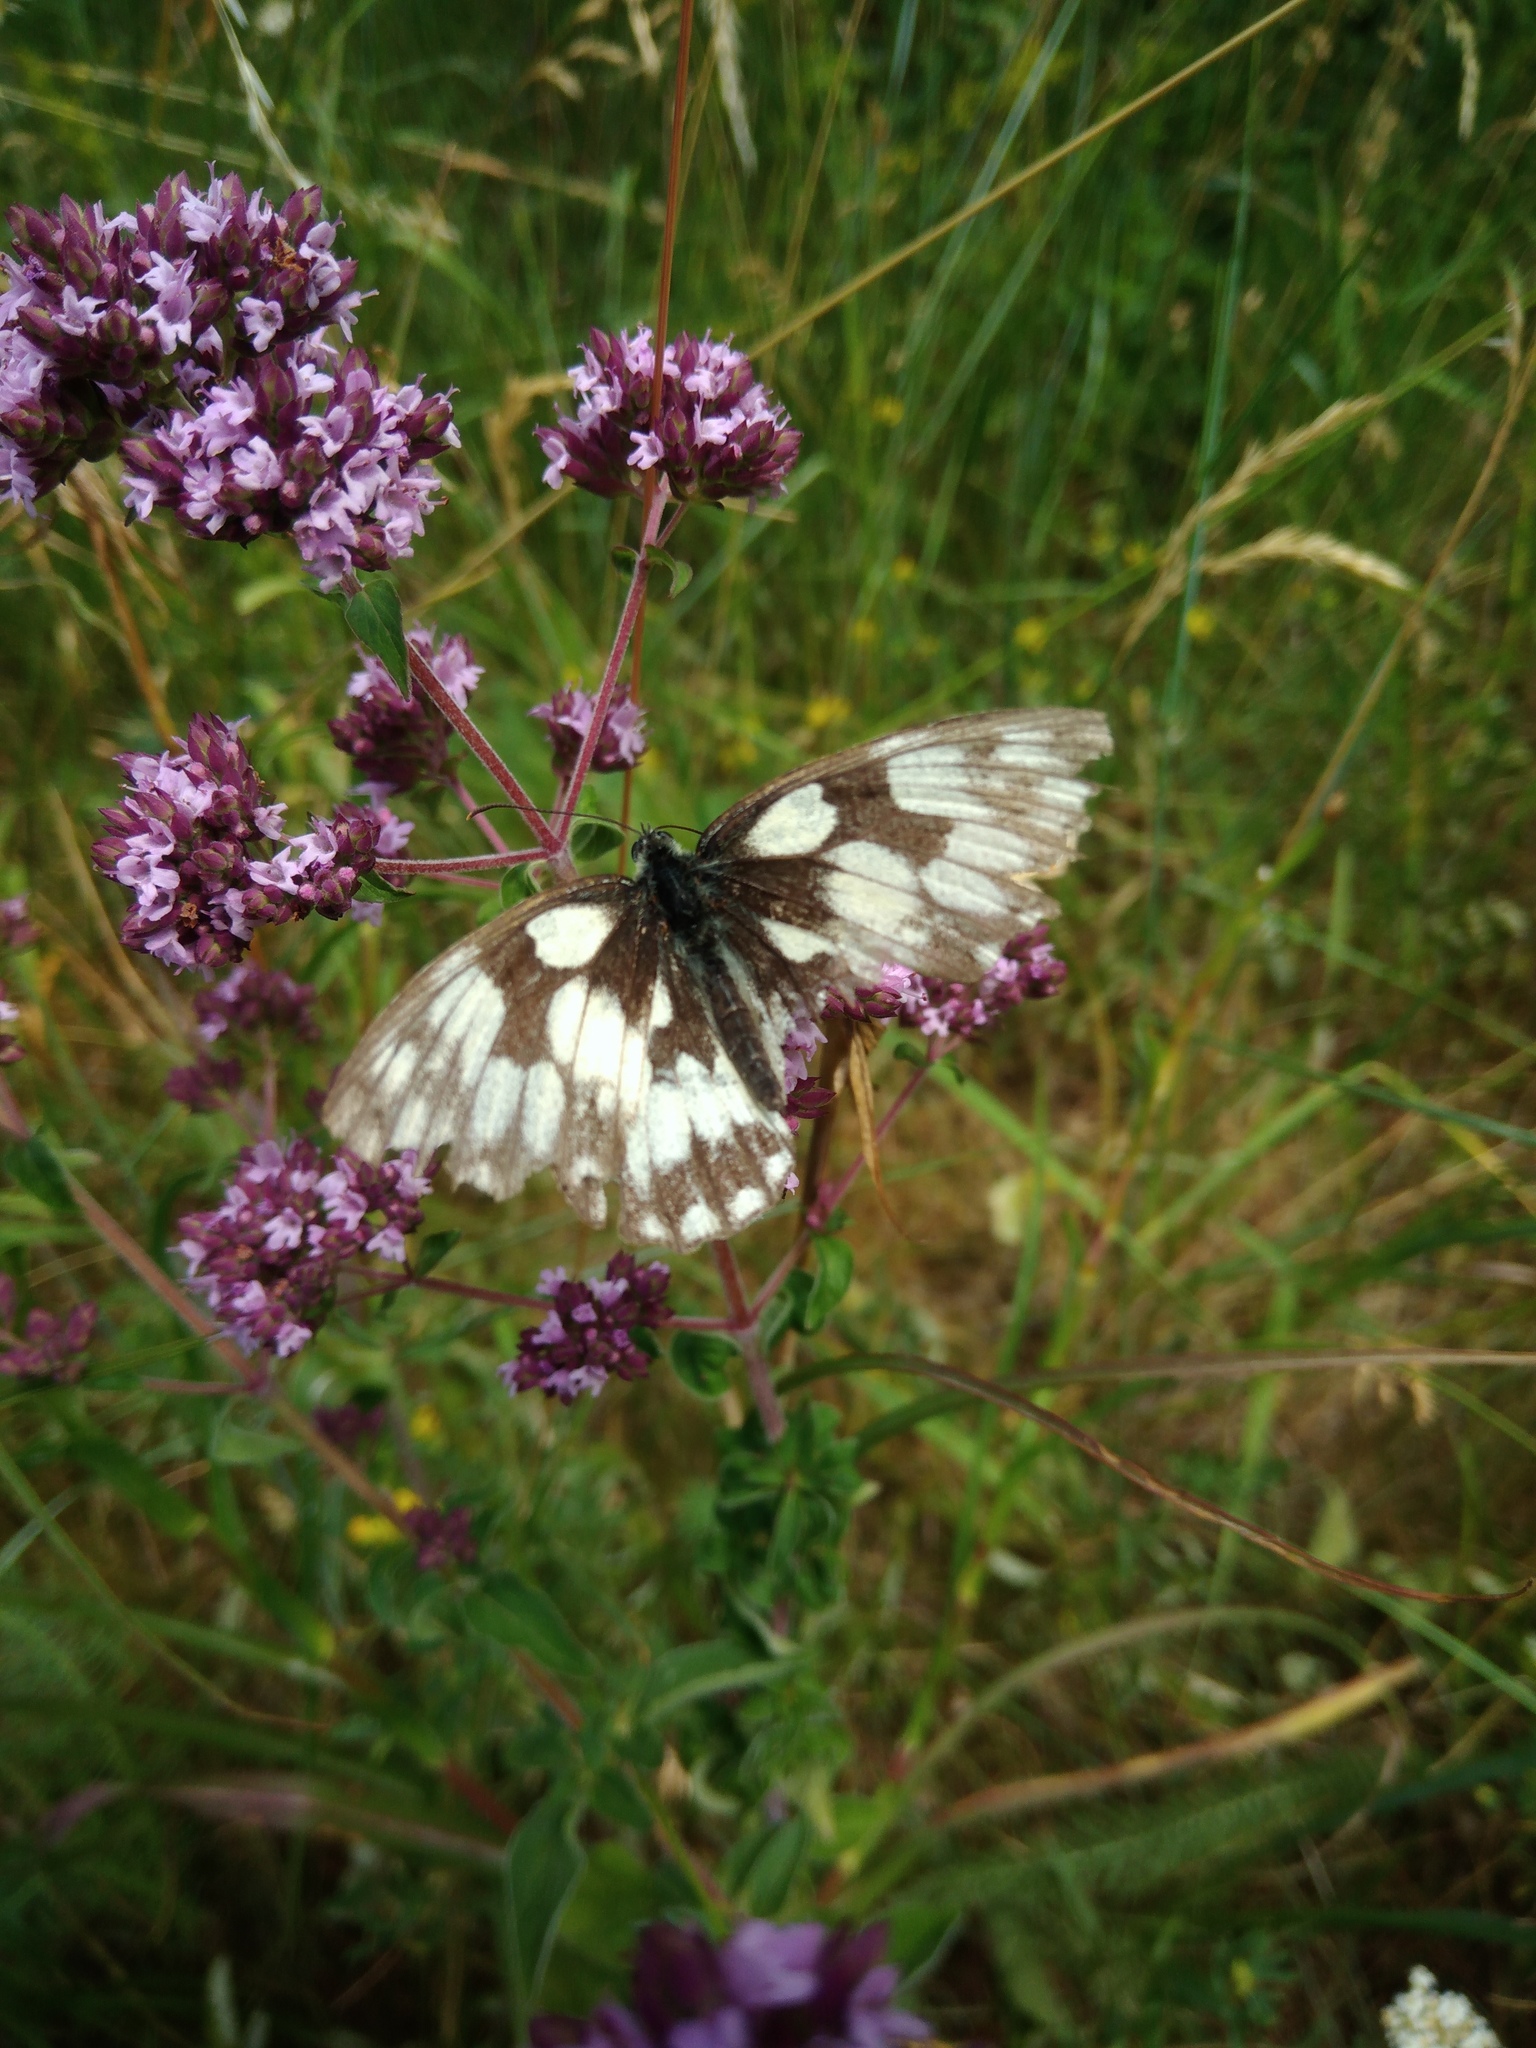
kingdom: Animalia
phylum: Arthropoda
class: Insecta
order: Lepidoptera
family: Nymphalidae
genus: Melanargia
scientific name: Melanargia galathea
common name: Marbled white
